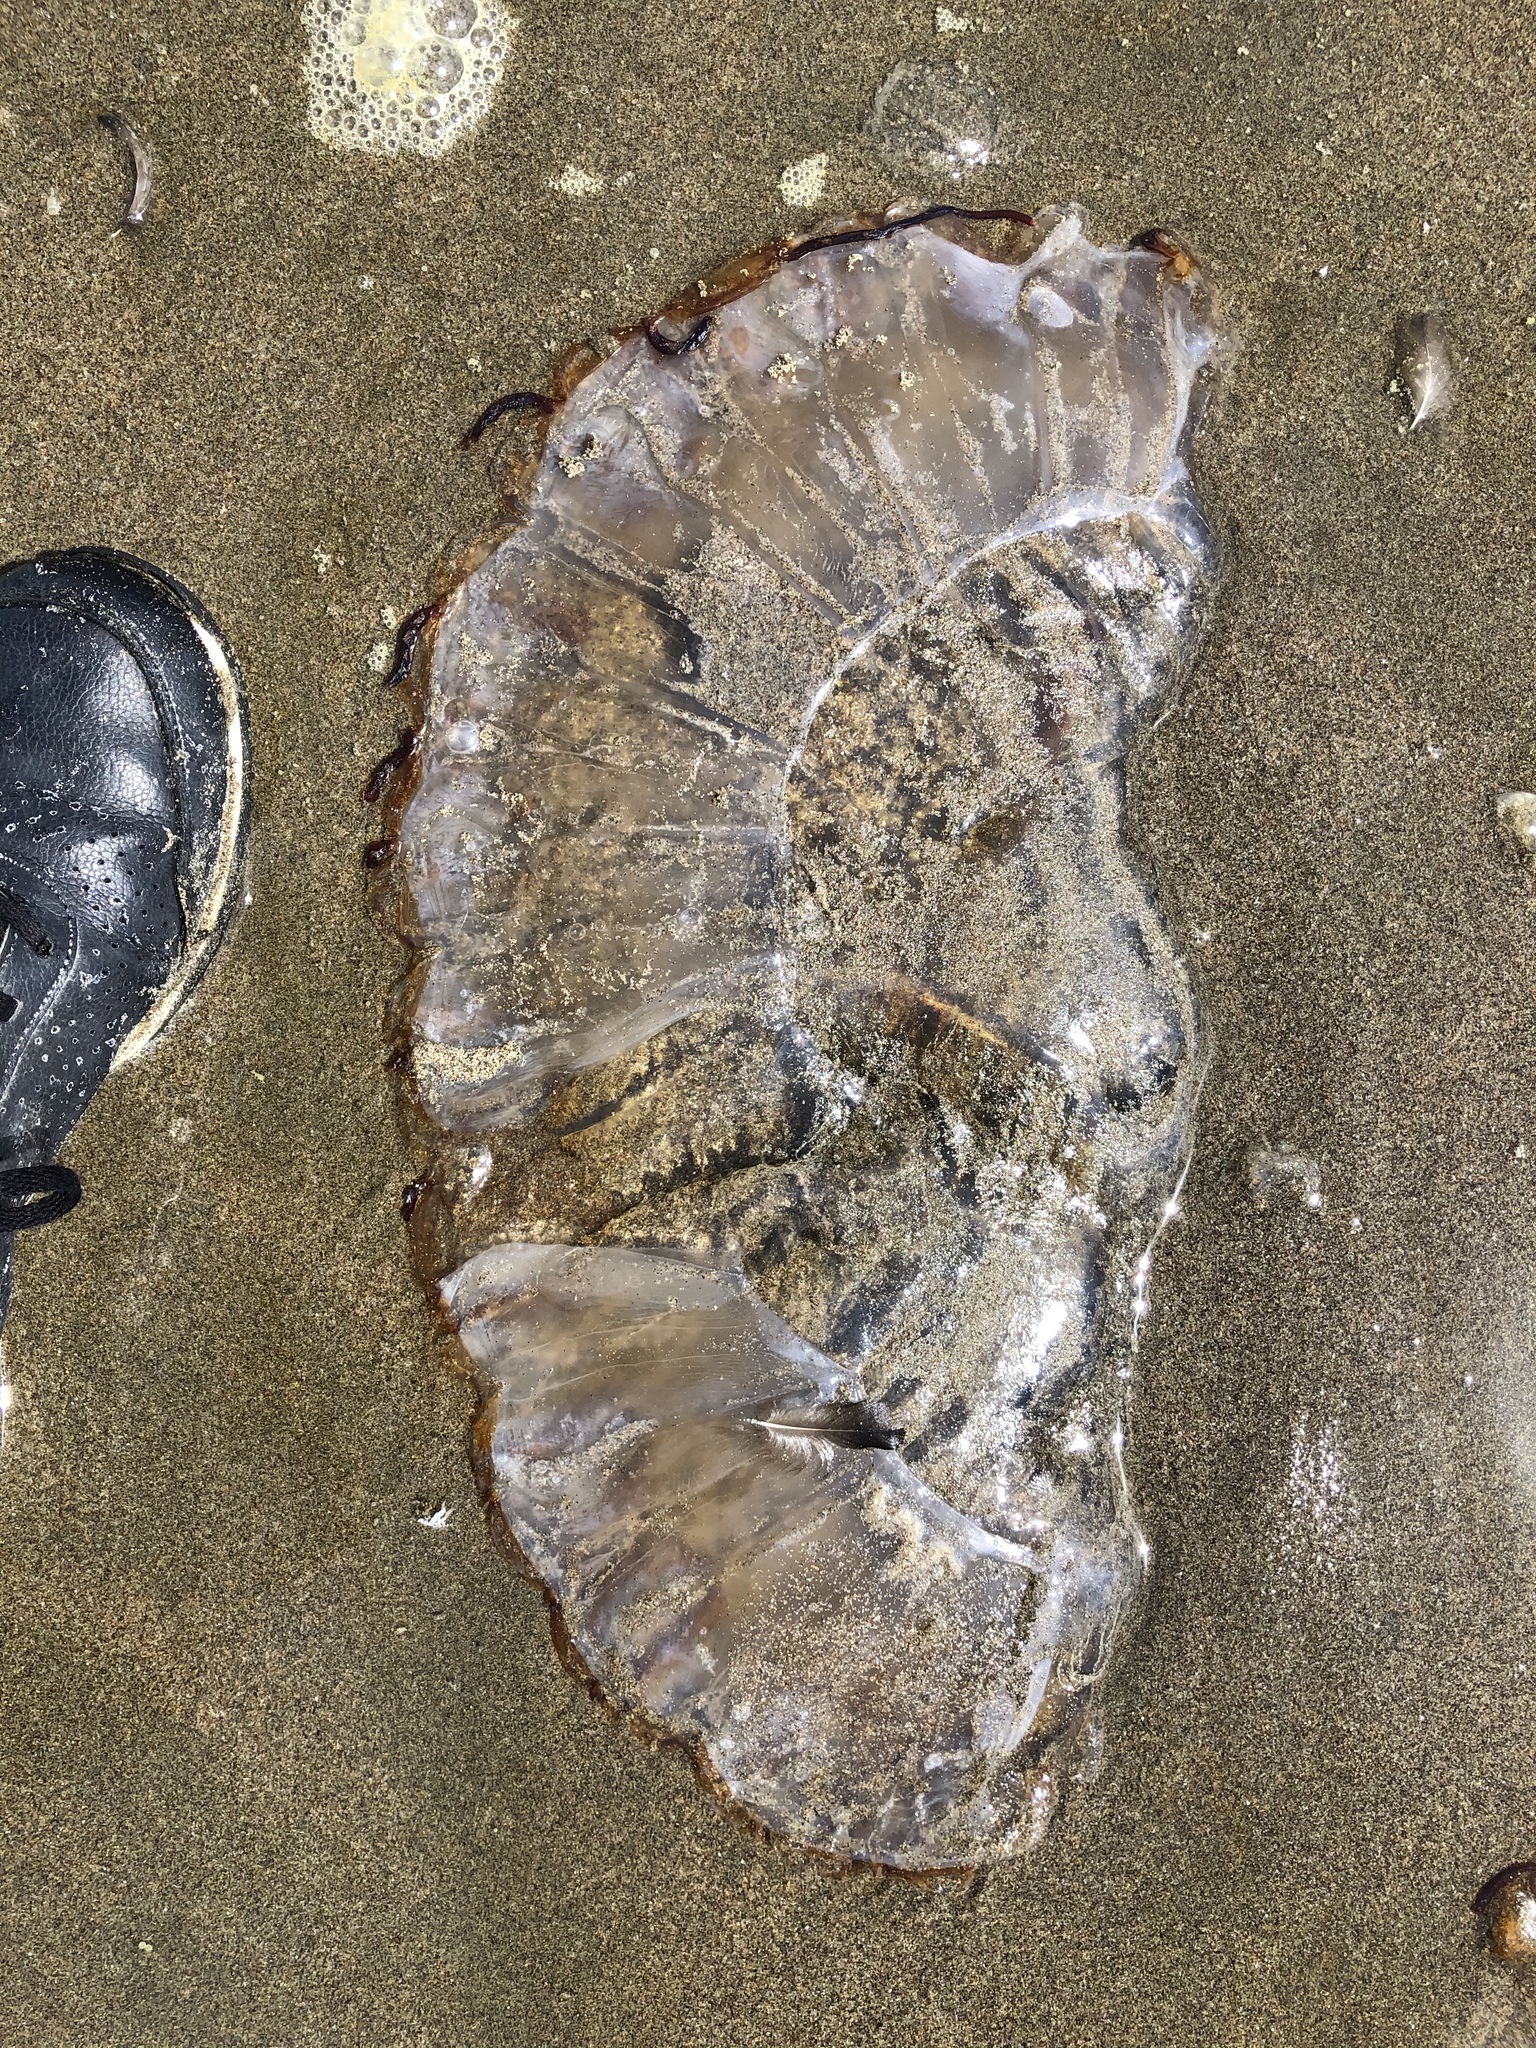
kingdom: Animalia
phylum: Cnidaria
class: Scyphozoa
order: Semaeostomeae
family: Pelagiidae
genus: Chrysaora
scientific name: Chrysaora fuscescens
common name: Sea nettle
